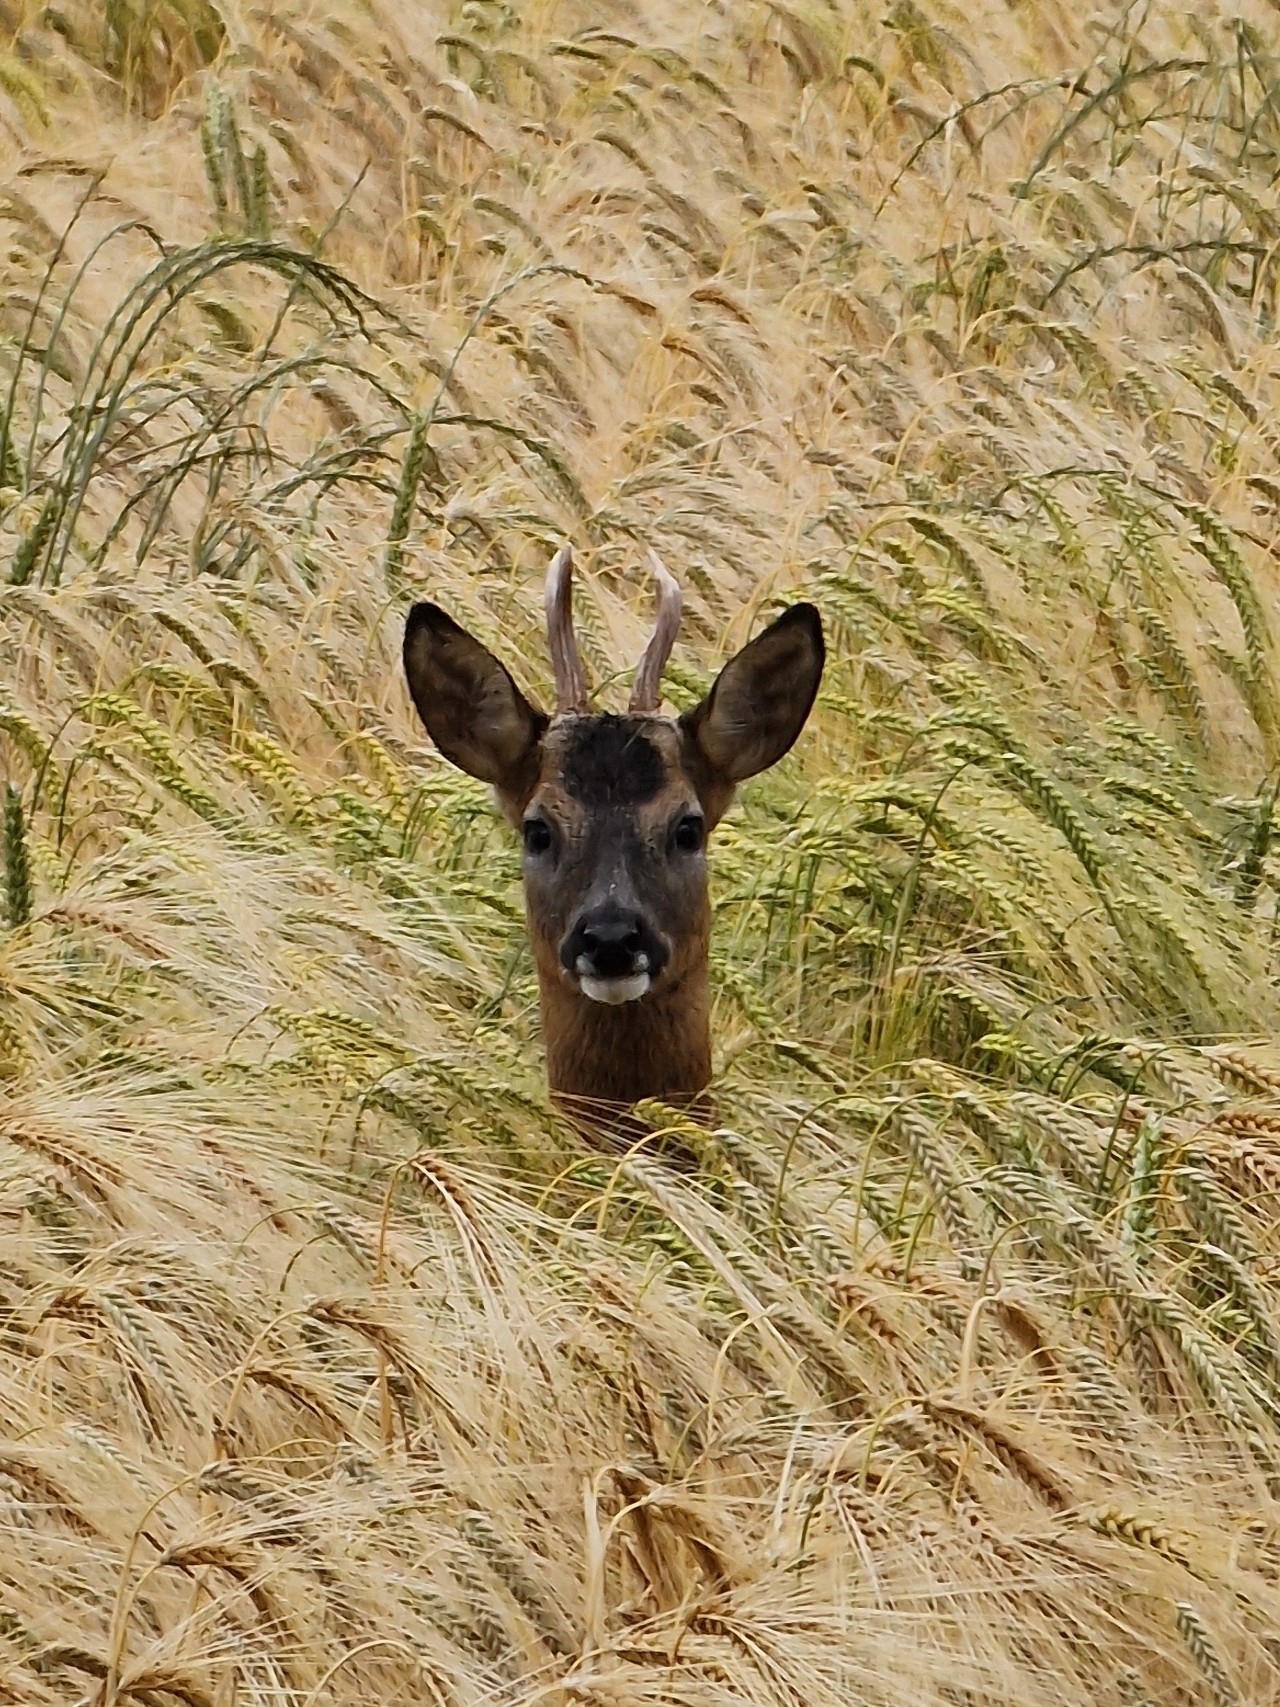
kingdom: Animalia
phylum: Chordata
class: Mammalia
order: Artiodactyla
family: Cervidae
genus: Capreolus
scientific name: Capreolus capreolus
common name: Western roe deer
